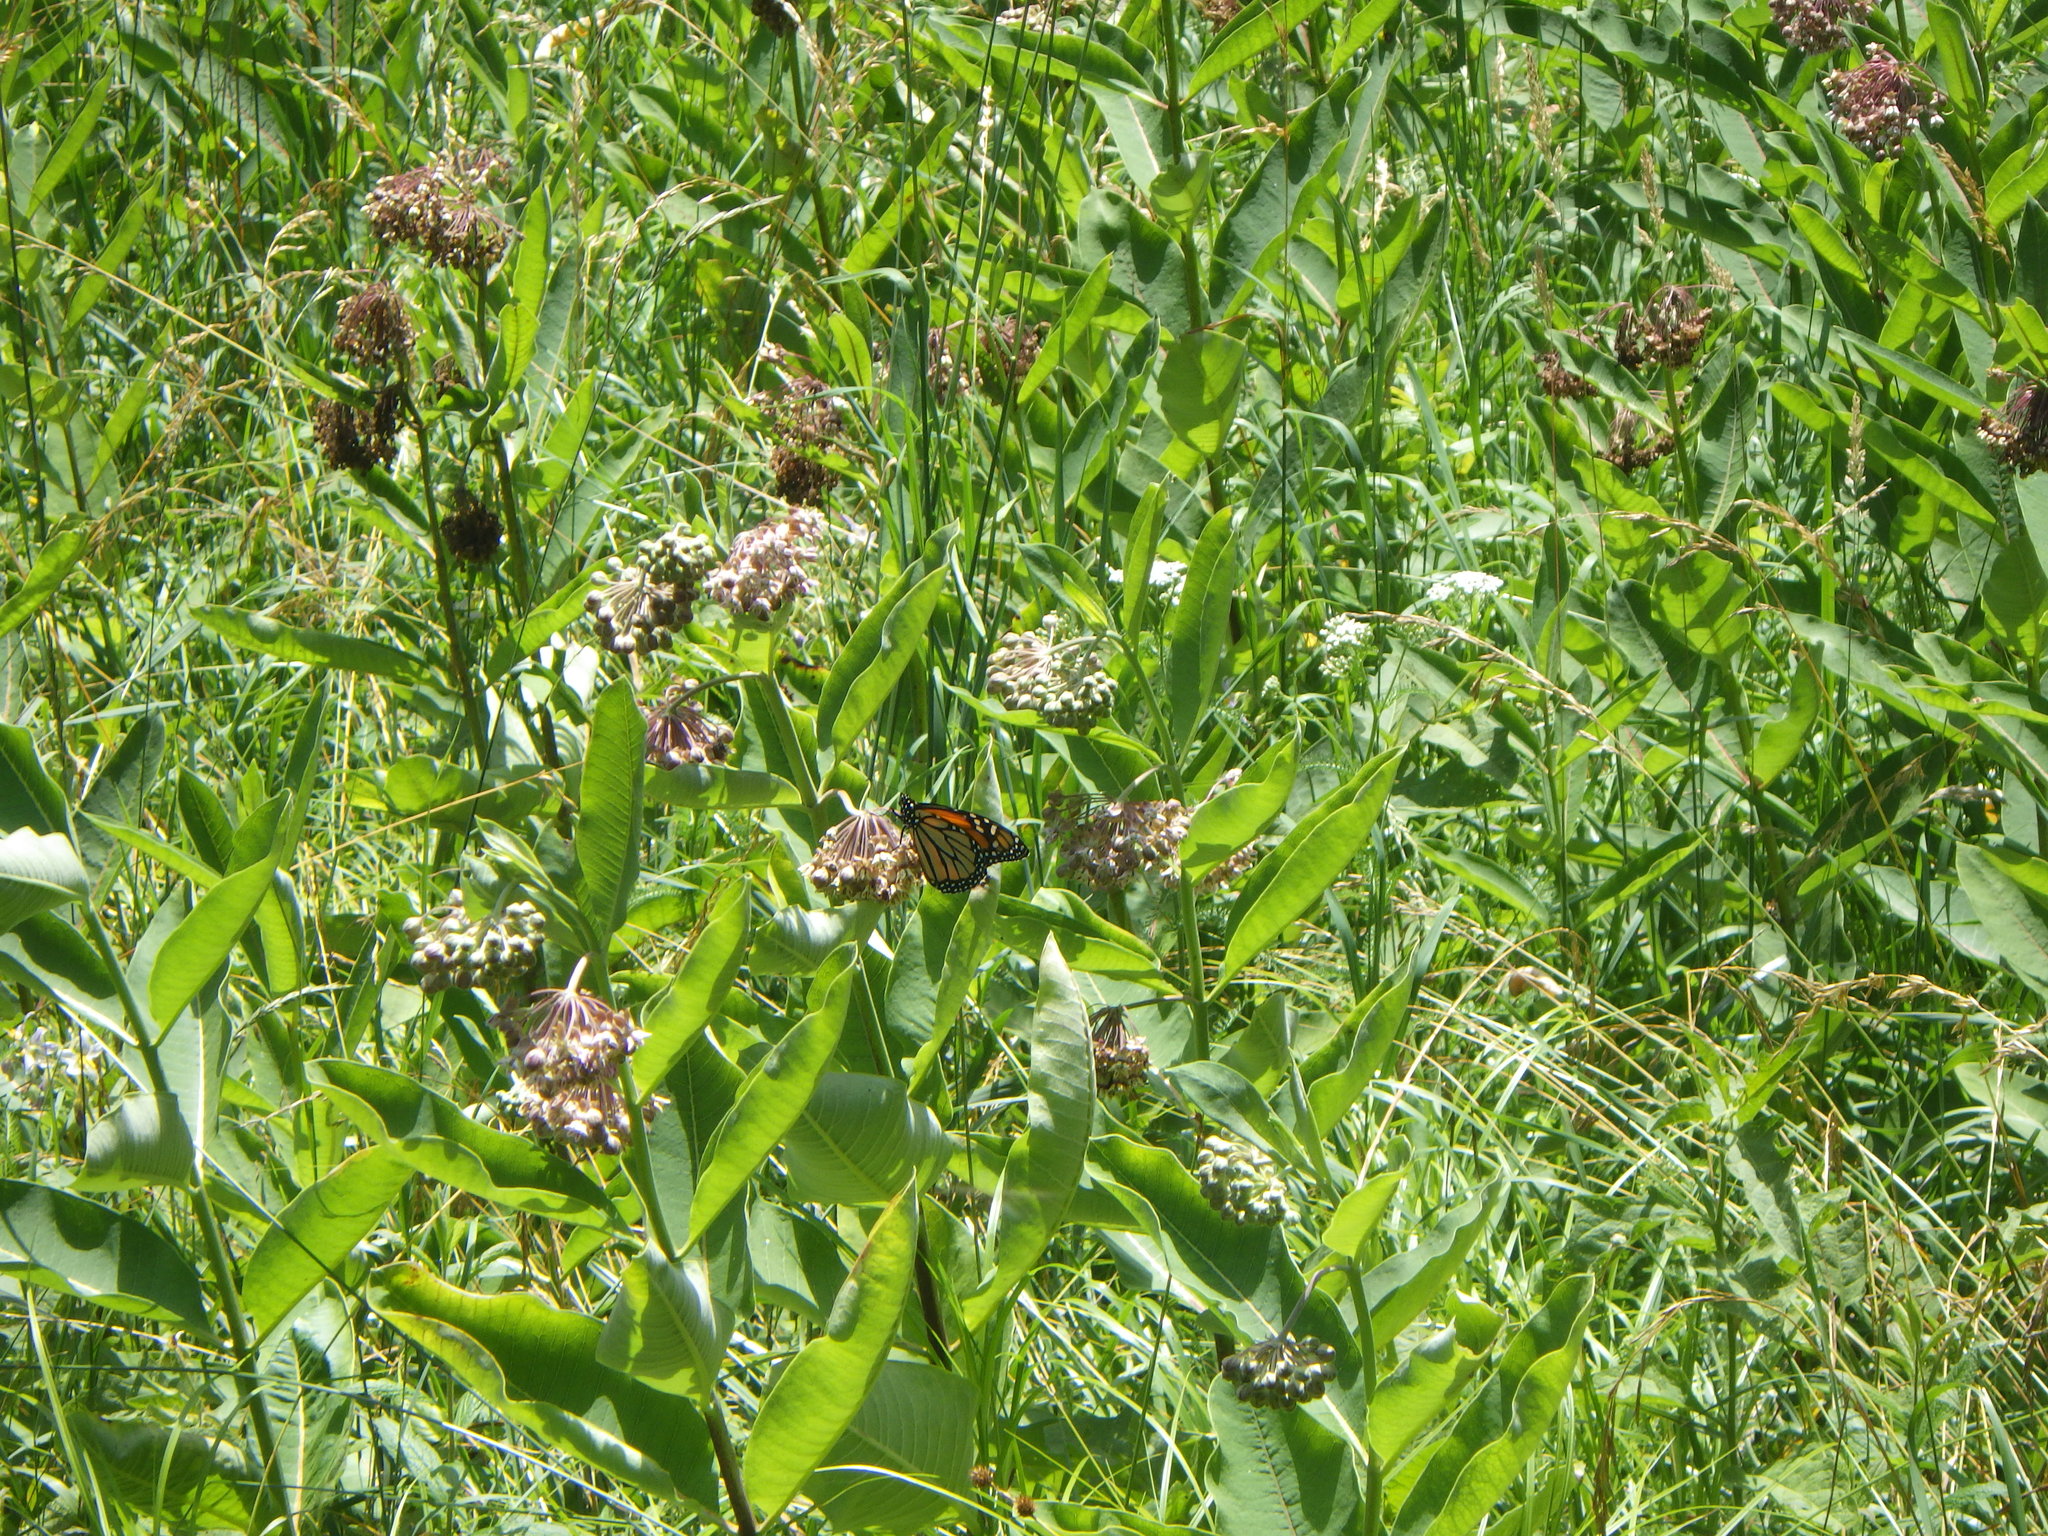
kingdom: Animalia
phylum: Arthropoda
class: Insecta
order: Lepidoptera
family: Nymphalidae
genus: Danaus
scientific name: Danaus plexippus
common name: Monarch
